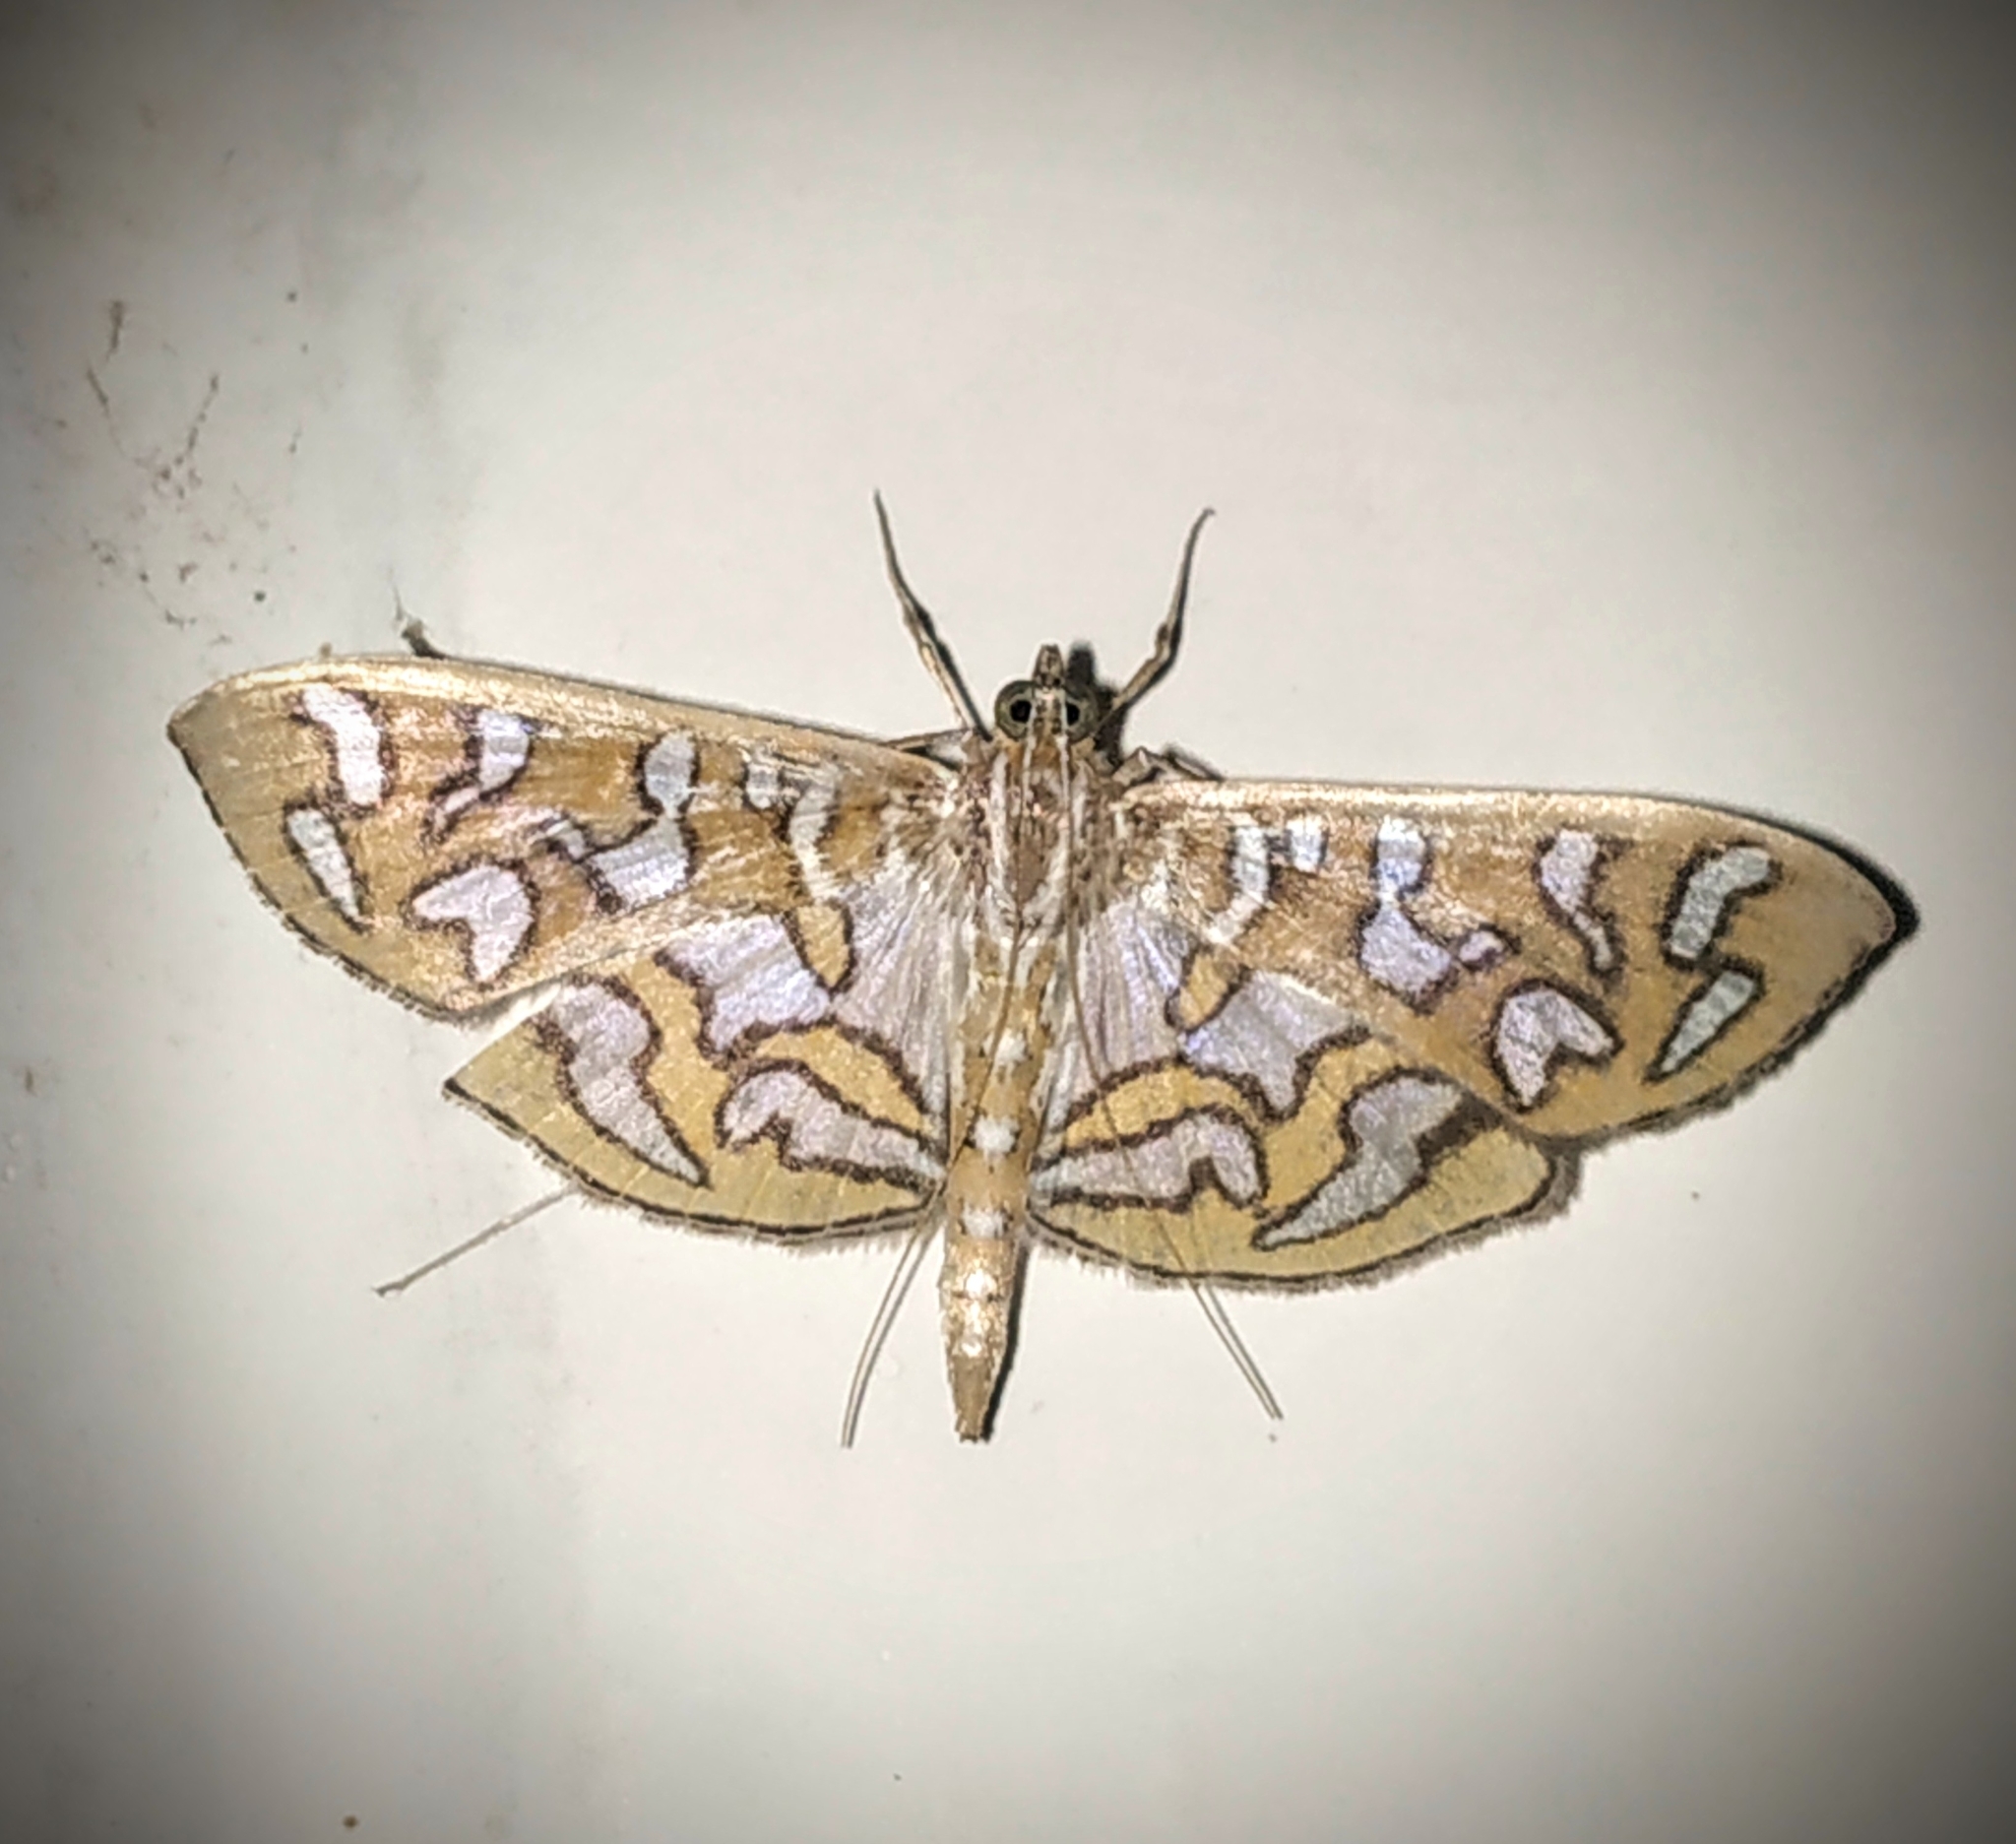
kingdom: Animalia
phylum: Arthropoda
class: Insecta
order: Lepidoptera
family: Crambidae
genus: Nausinoe
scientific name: Nausinoe perspectata
